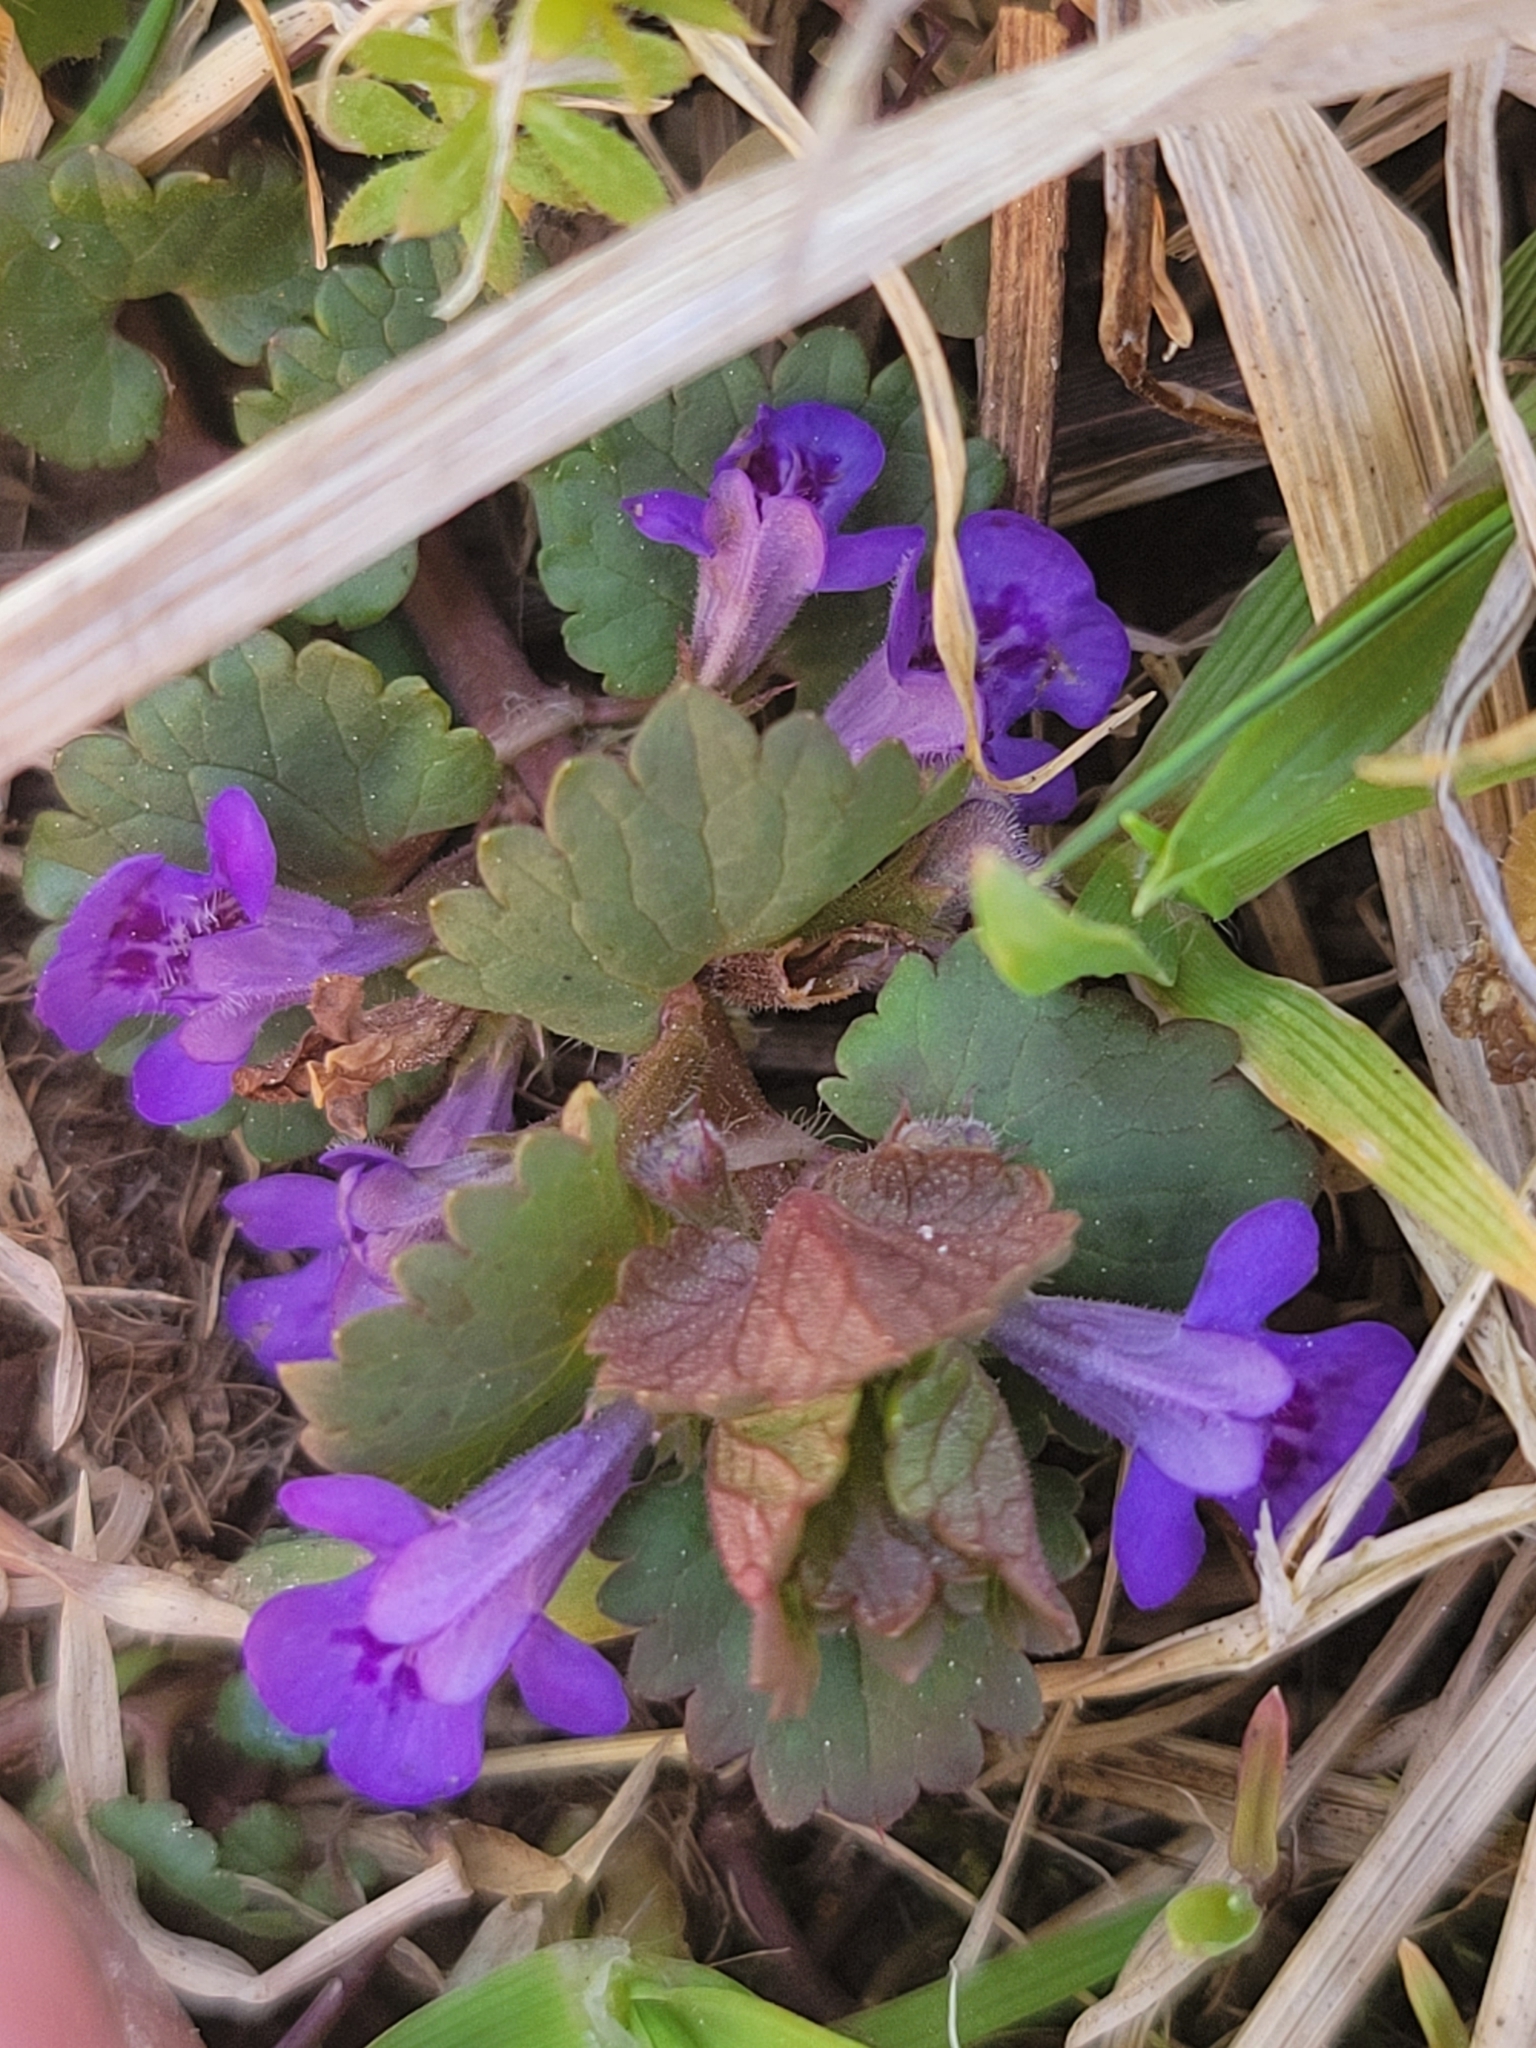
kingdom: Plantae
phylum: Tracheophyta
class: Magnoliopsida
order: Lamiales
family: Lamiaceae
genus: Glechoma
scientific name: Glechoma hederacea
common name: Ground ivy
